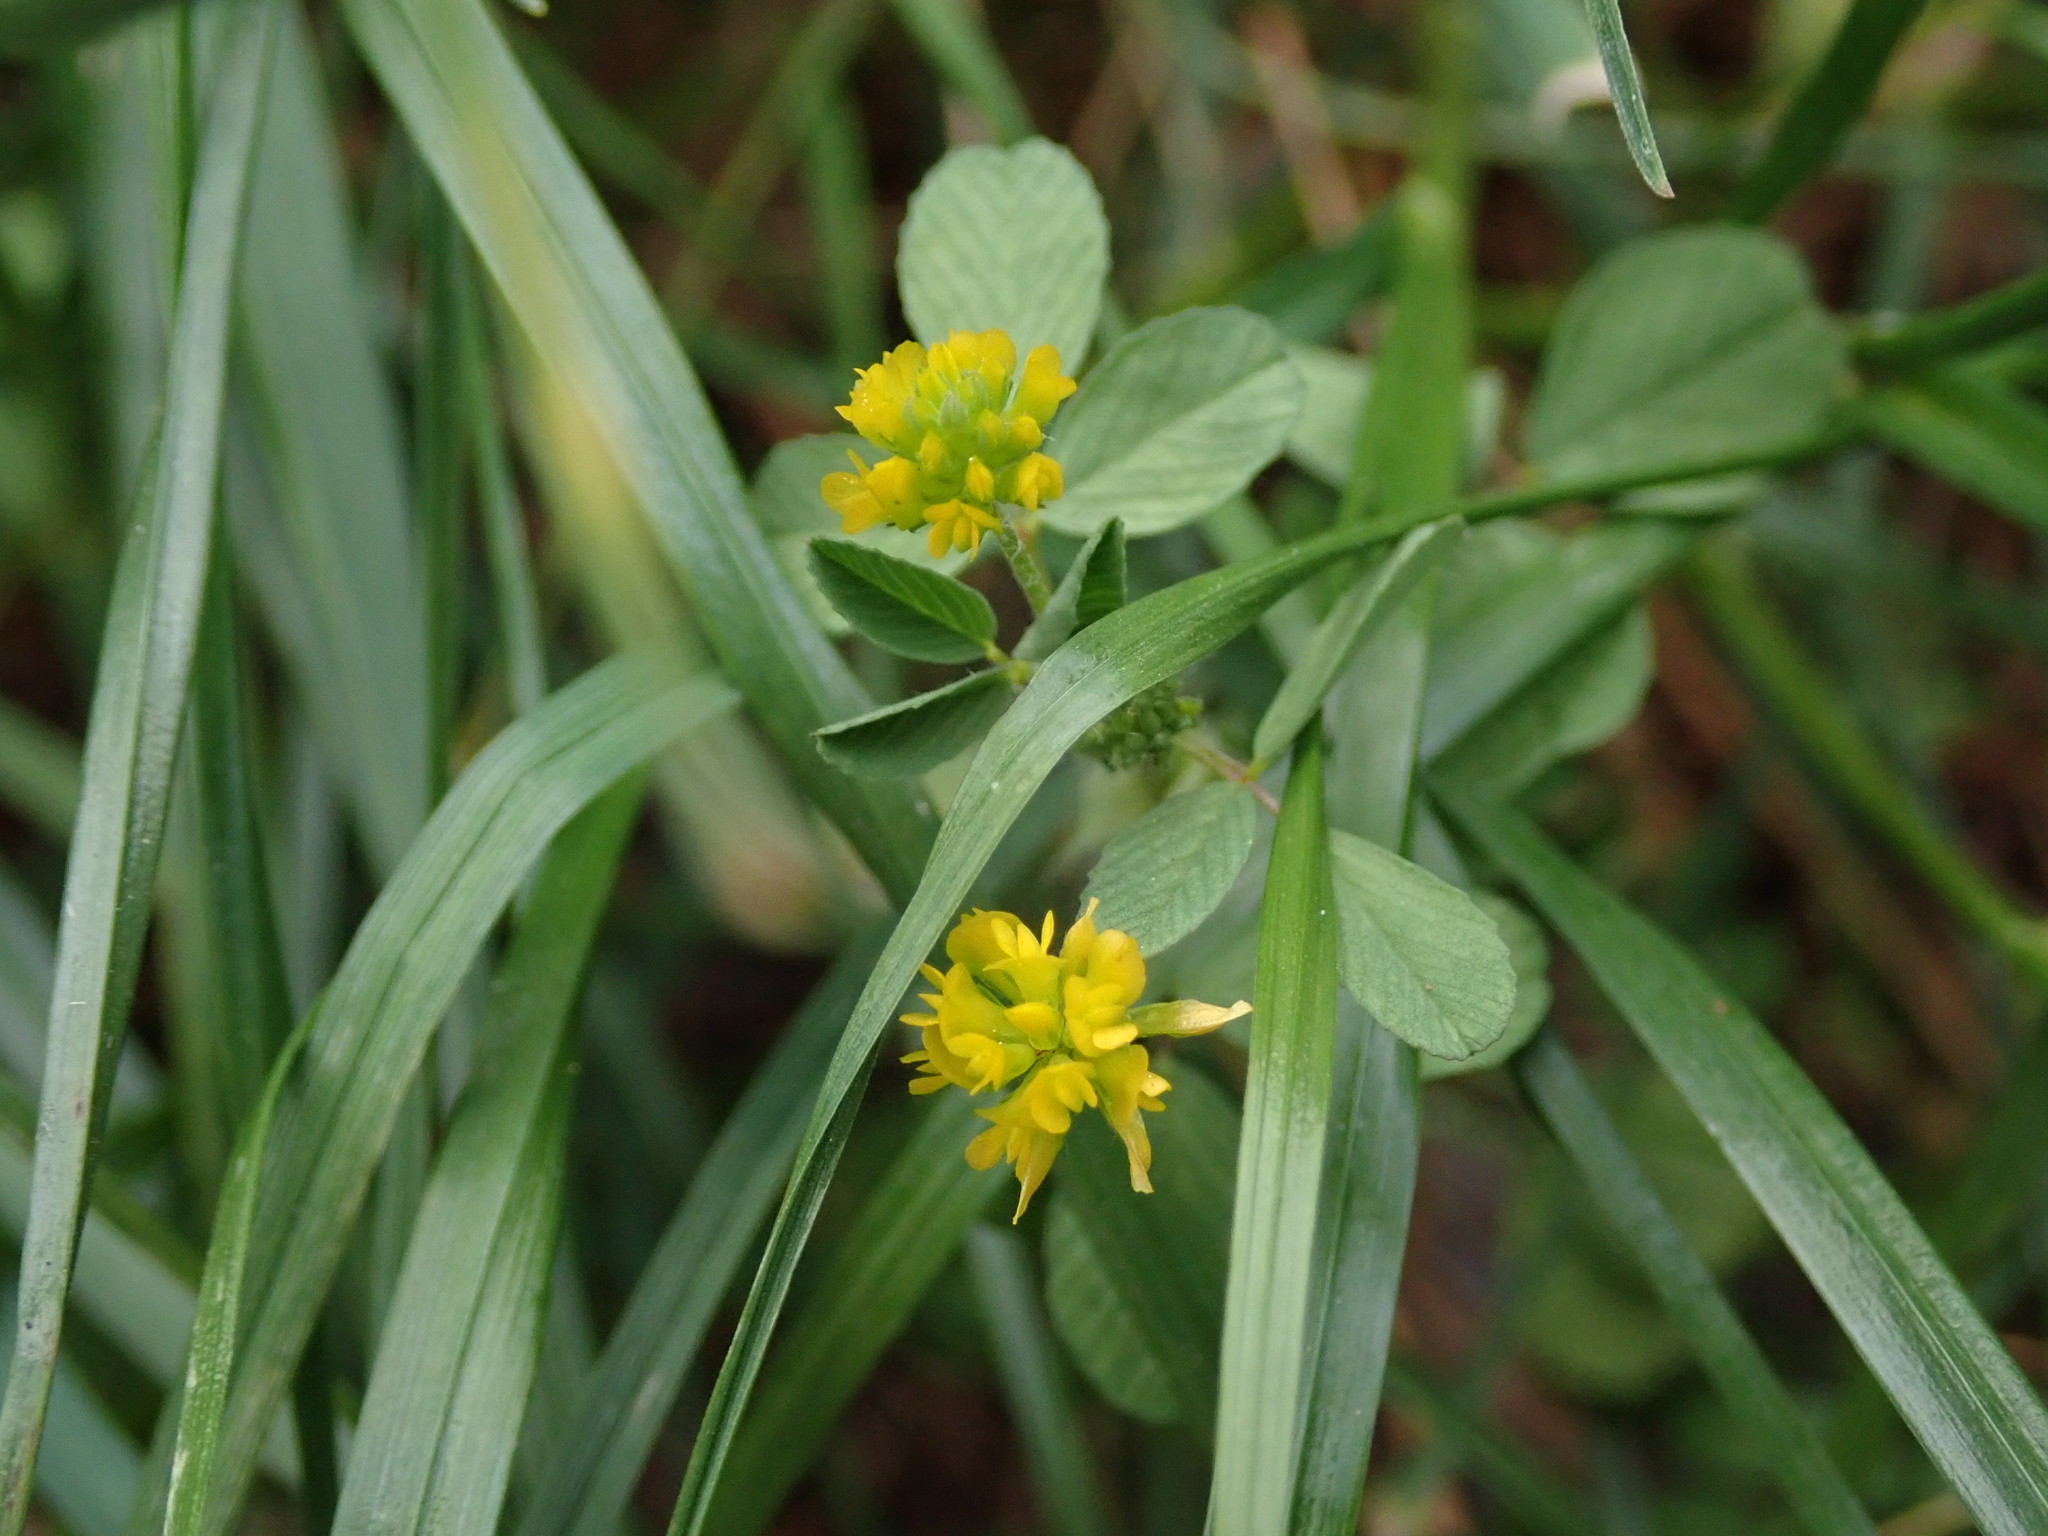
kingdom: Plantae
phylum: Tracheophyta
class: Magnoliopsida
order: Fabales
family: Fabaceae
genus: Trifolium
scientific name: Trifolium dubium
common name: Suckling clover
